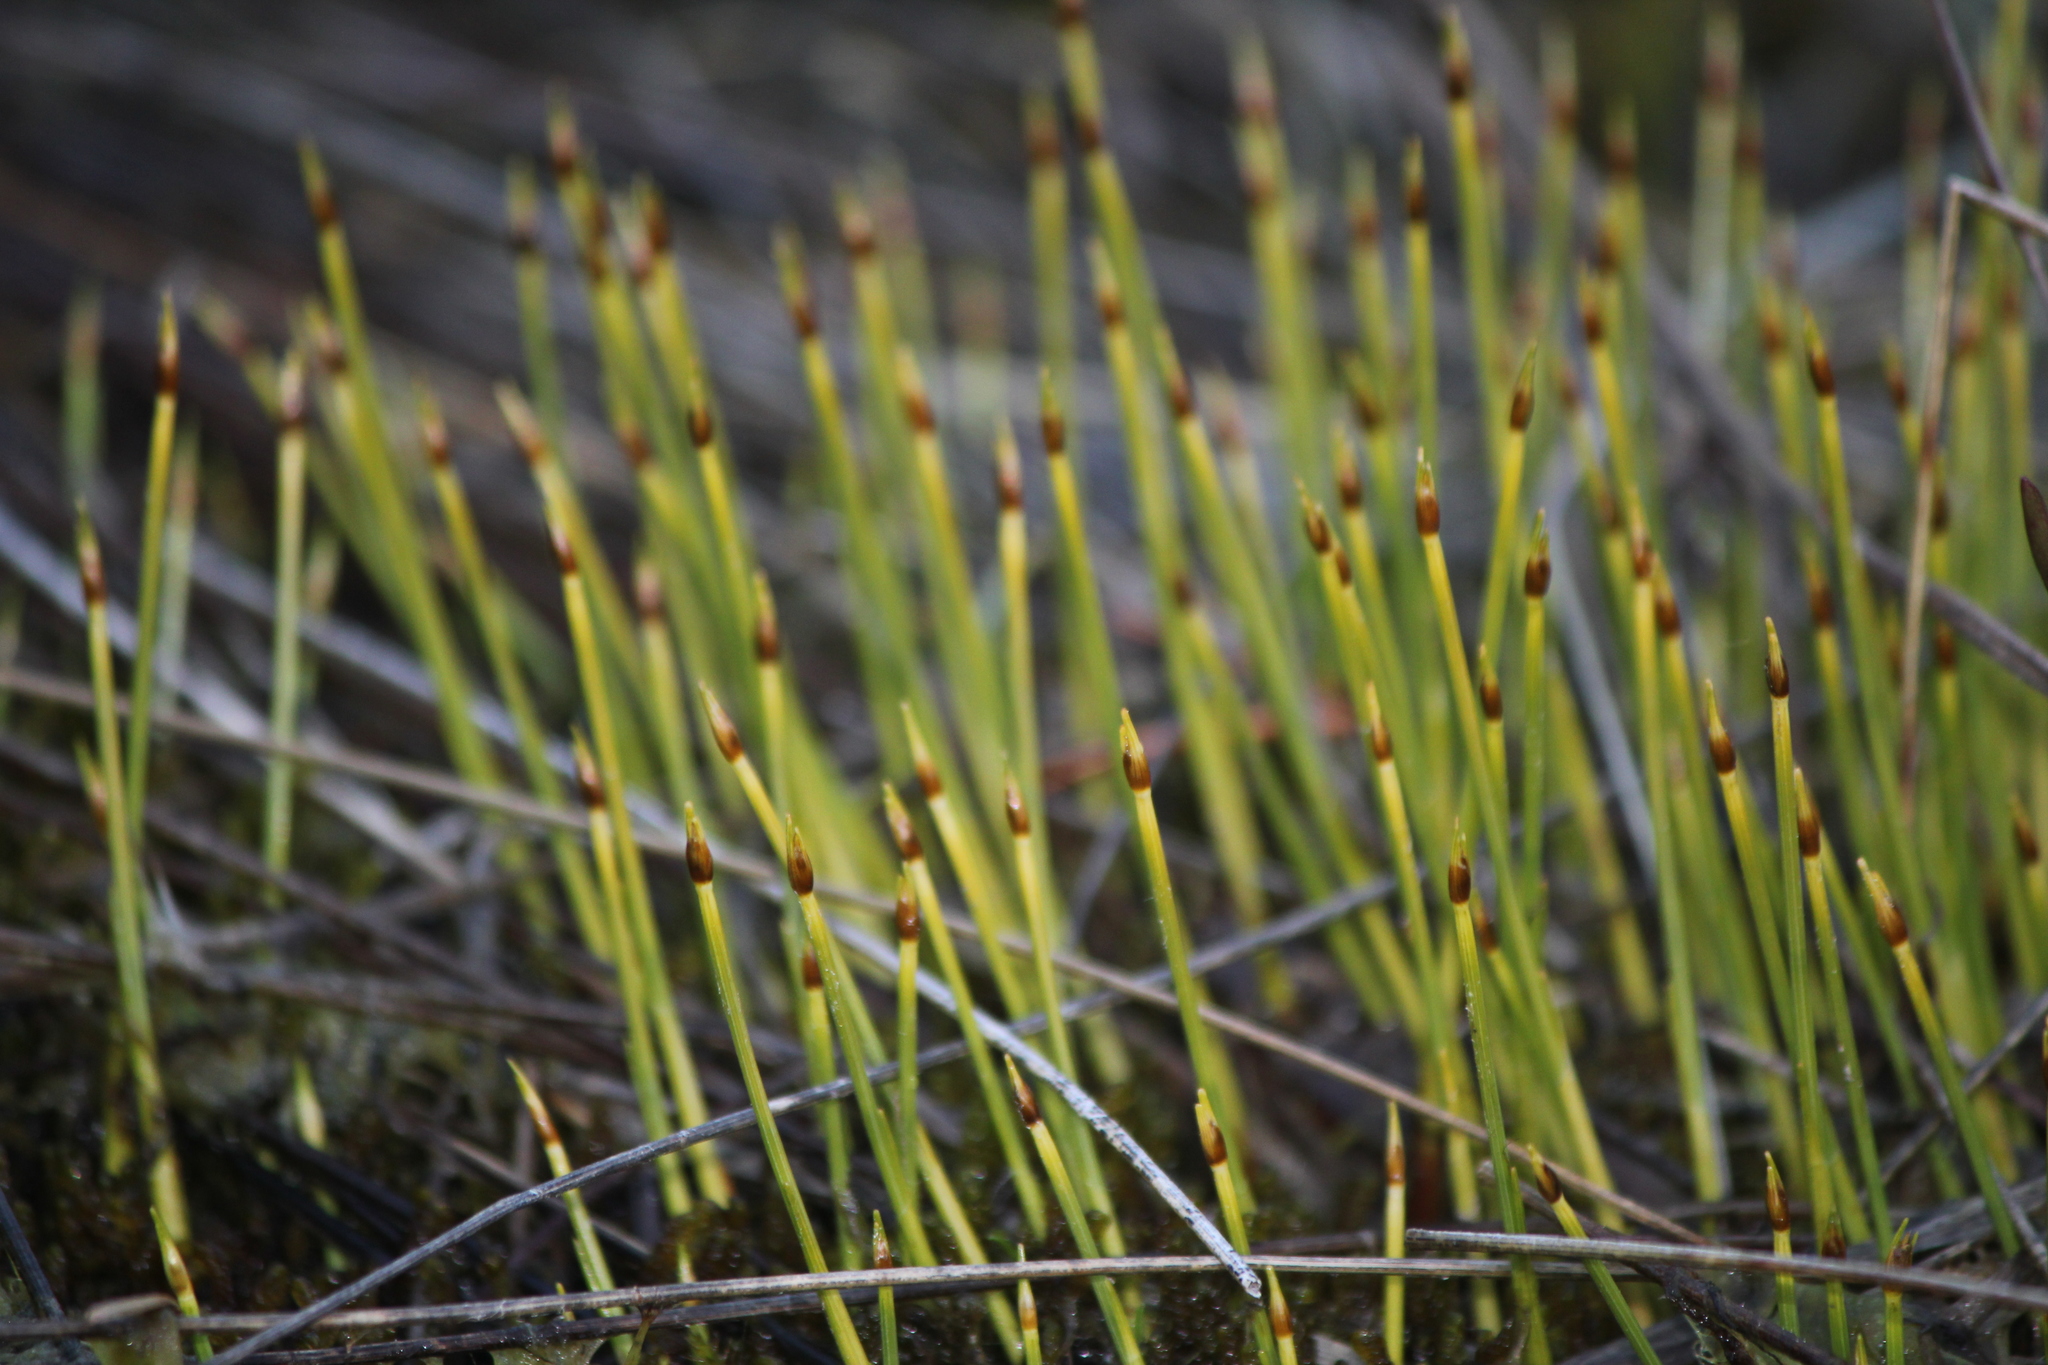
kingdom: Plantae
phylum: Tracheophyta
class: Liliopsida
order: Poales
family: Cyperaceae
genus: Trichophorum
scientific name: Trichophorum cespitosum
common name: Cespitose bulrush
